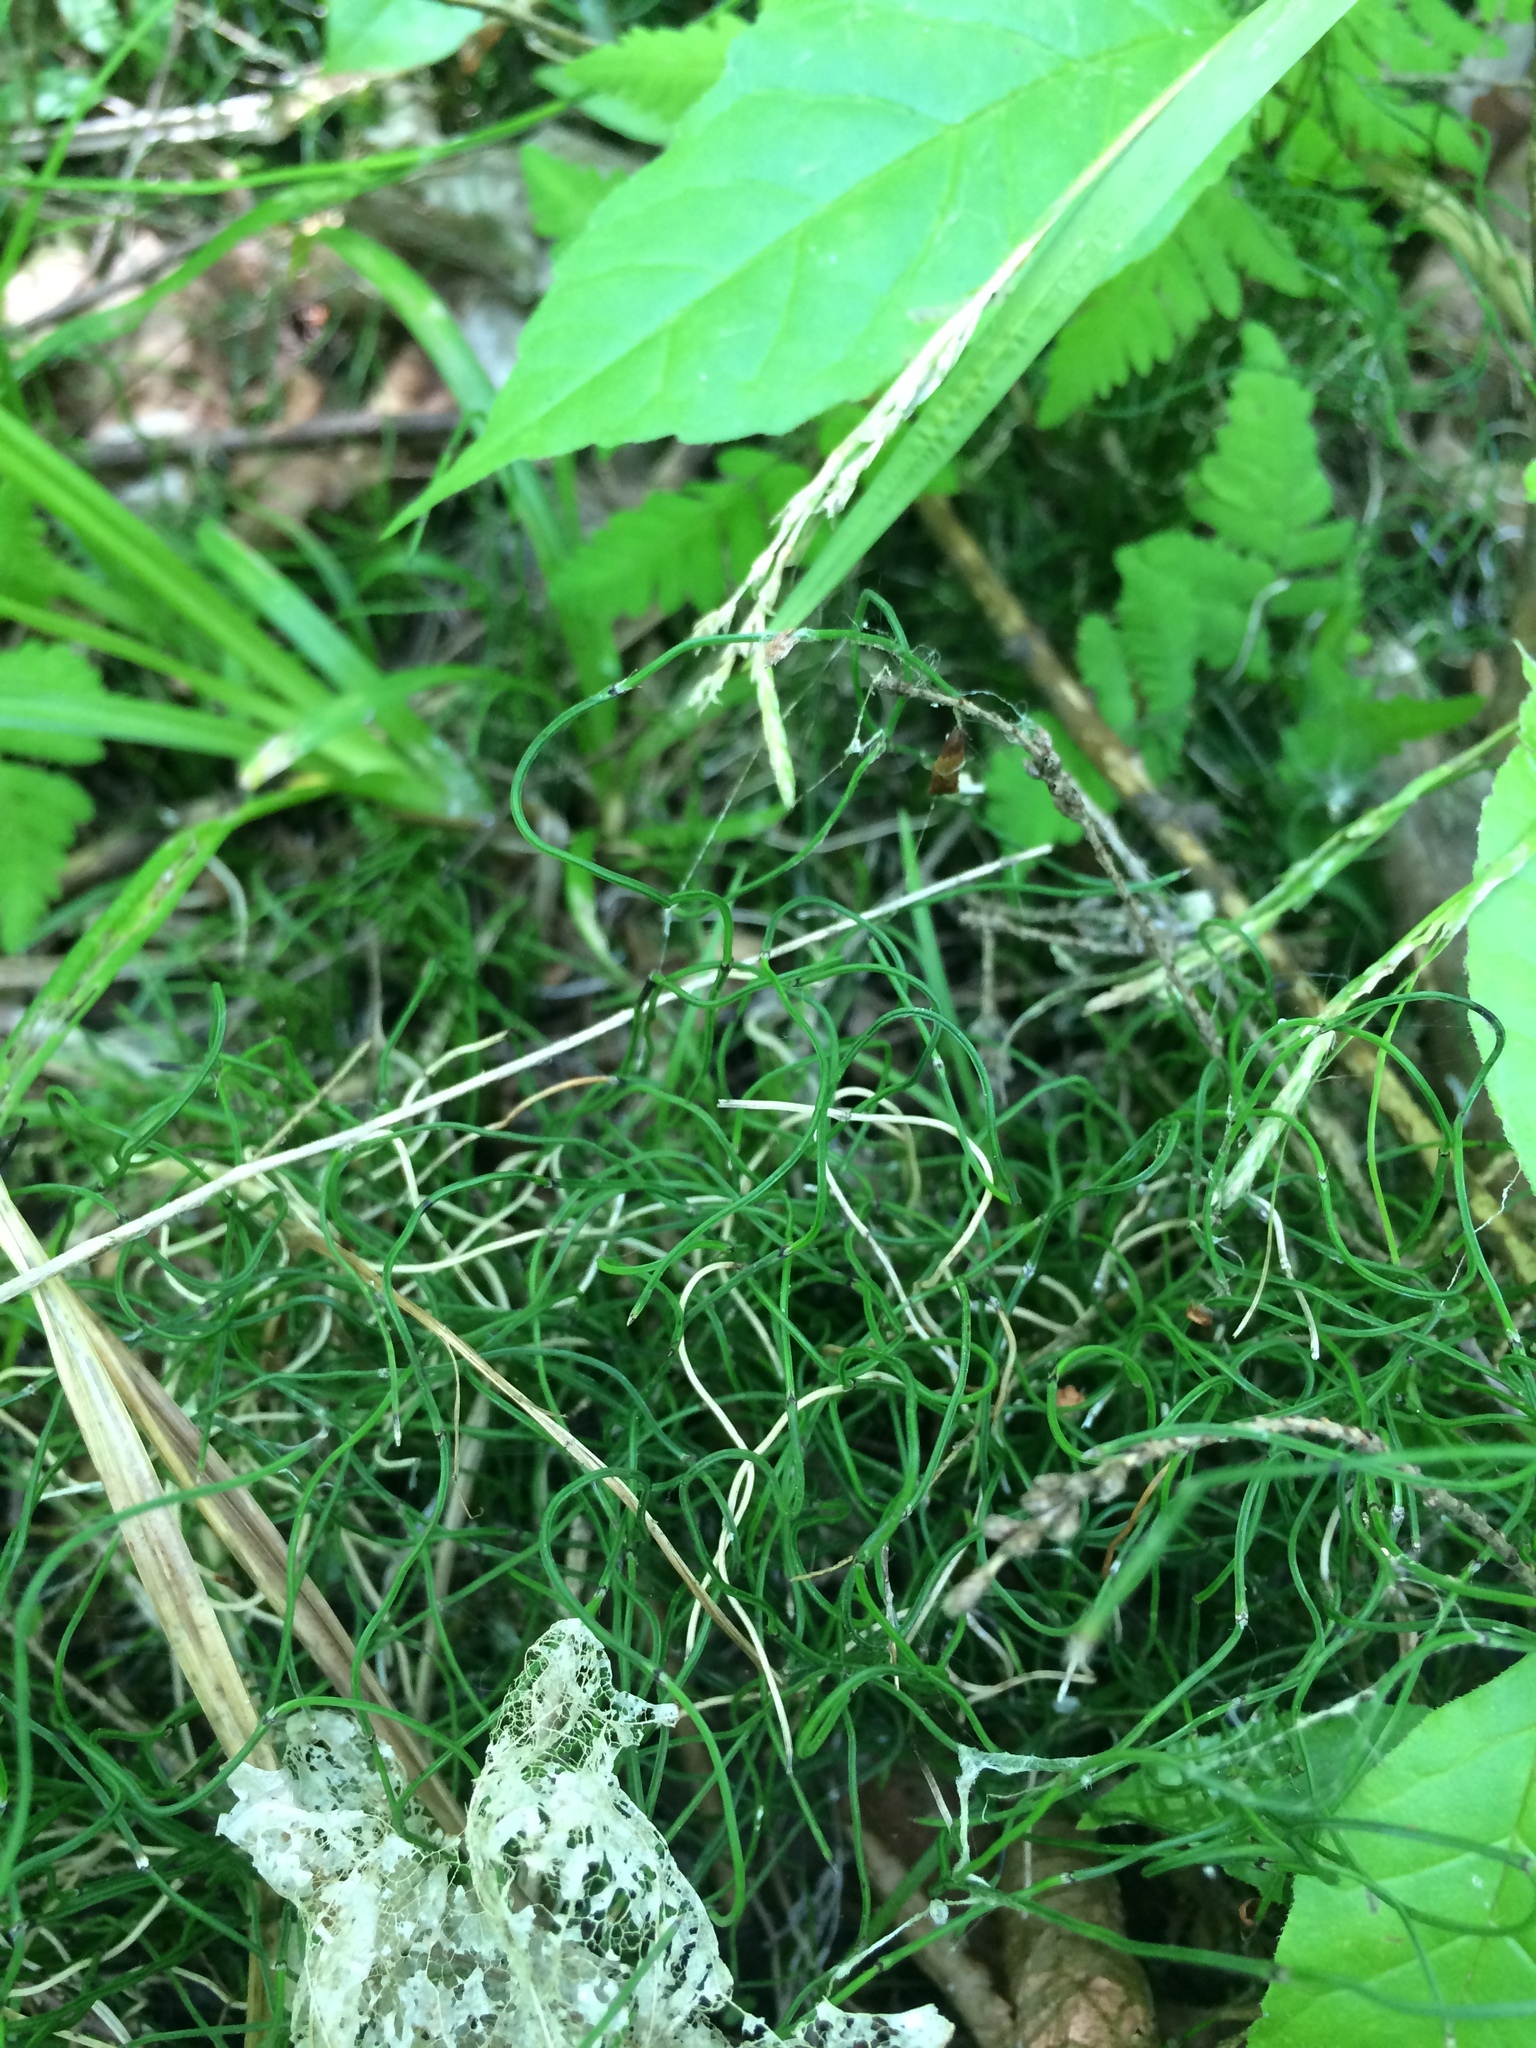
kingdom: Plantae
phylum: Tracheophyta
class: Polypodiopsida
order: Equisetales
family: Equisetaceae
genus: Equisetum
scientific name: Equisetum scirpoides
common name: Delicate horsetail
